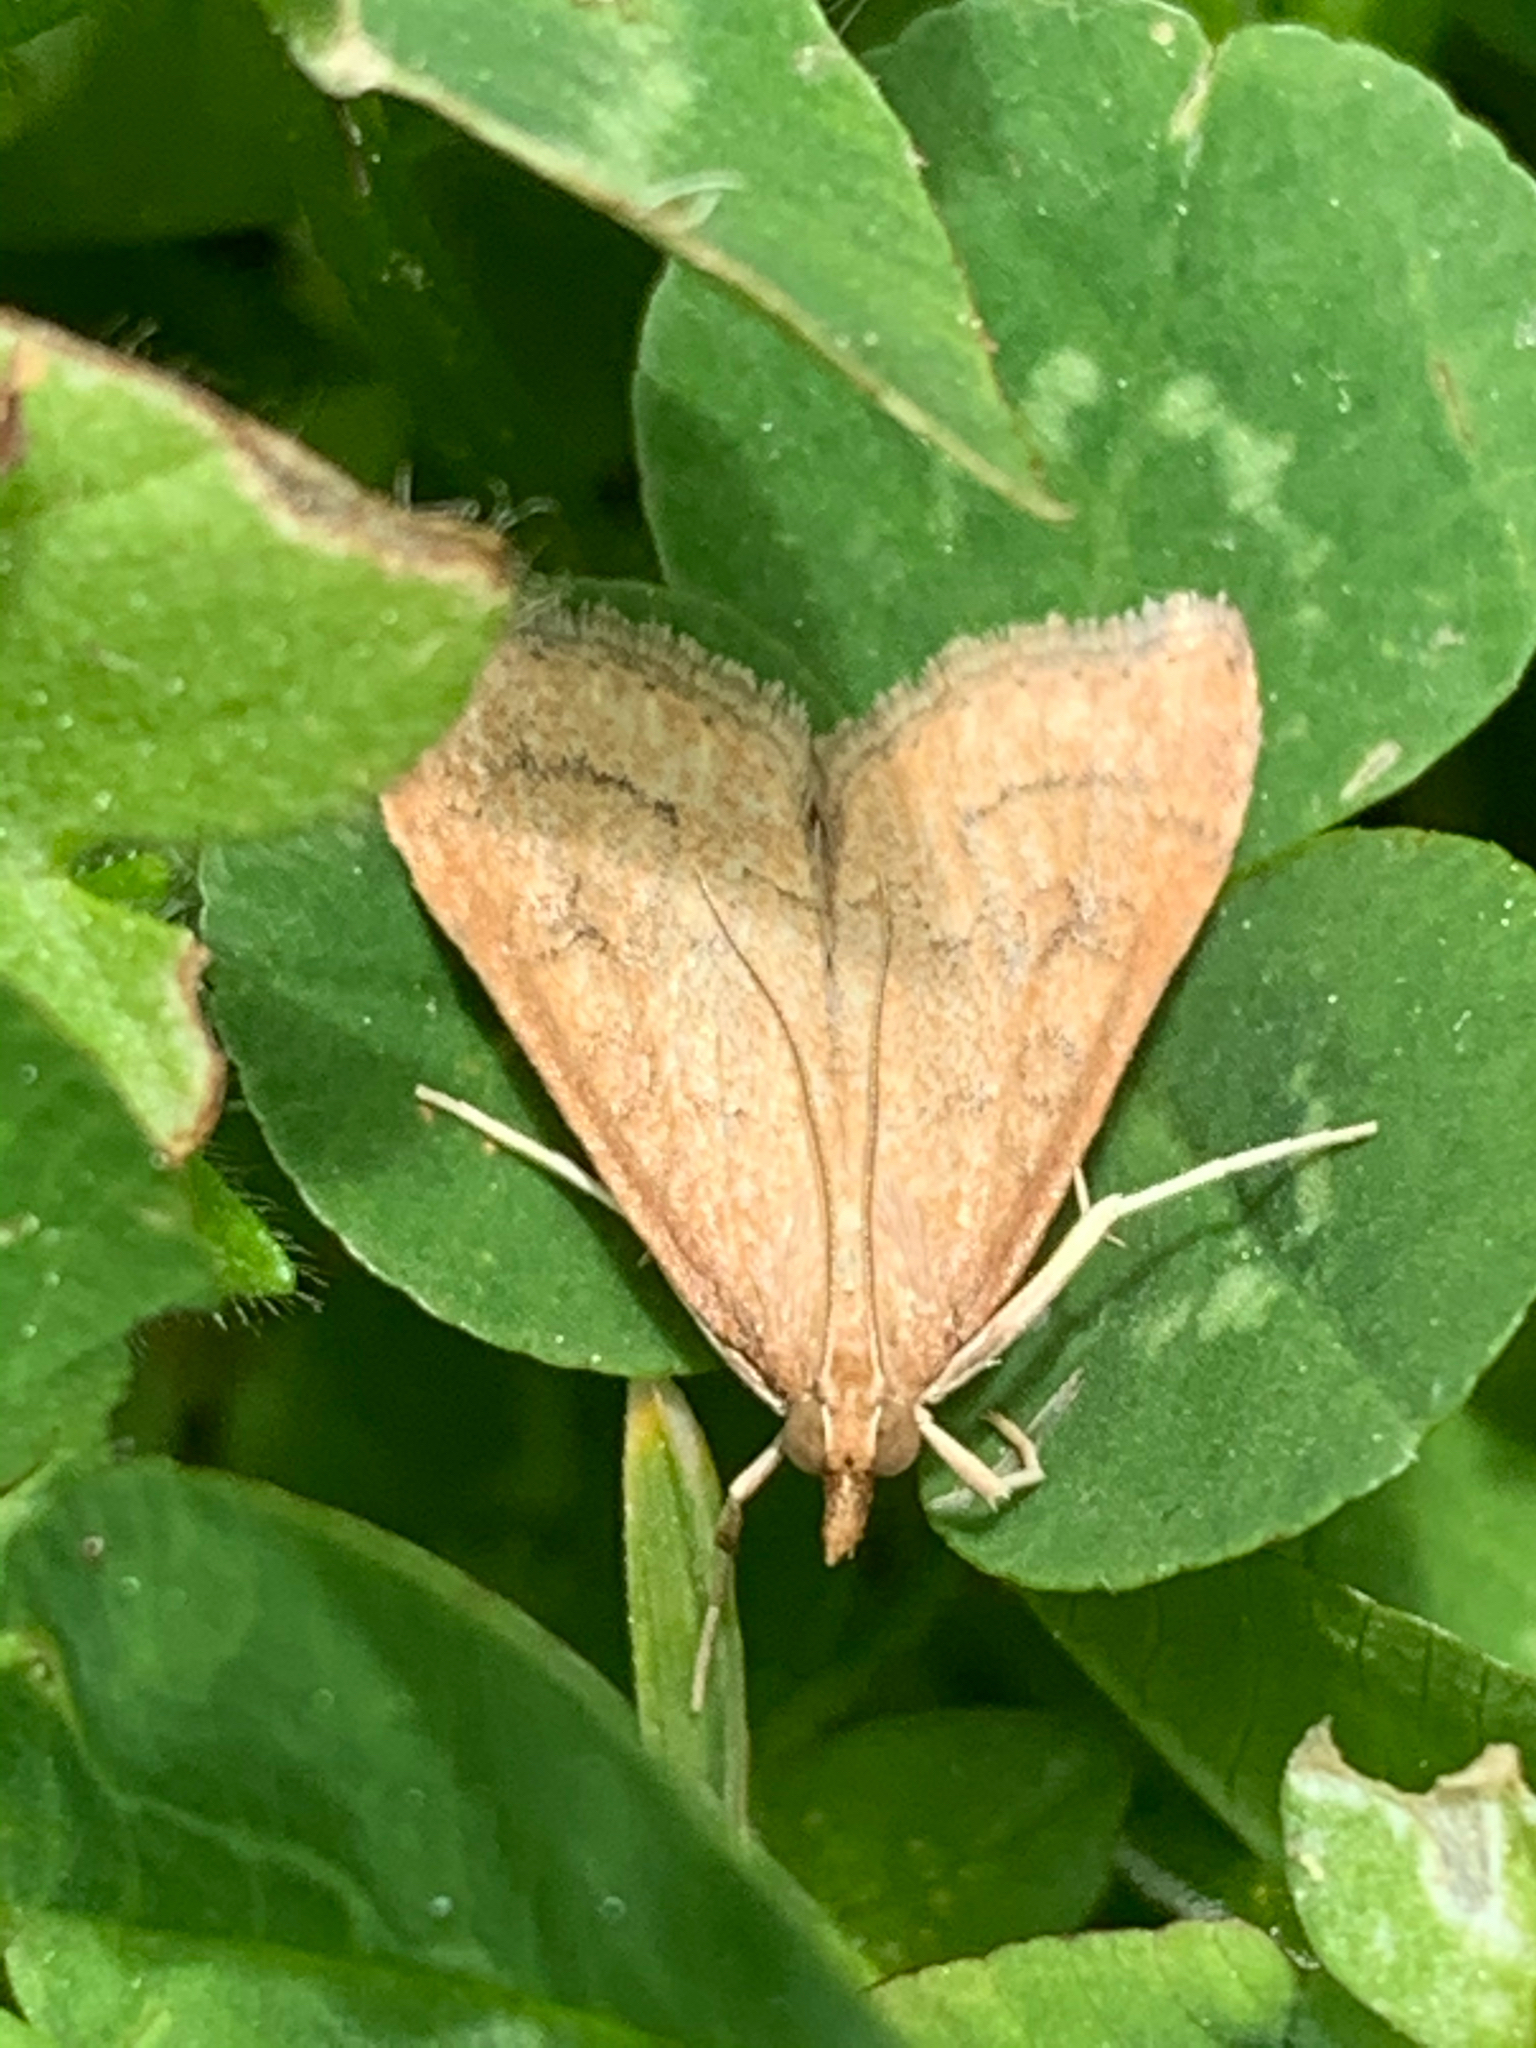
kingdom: Animalia
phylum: Arthropoda
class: Insecta
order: Lepidoptera
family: Crambidae
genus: Udea
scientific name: Udea rubigalis
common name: Celery leaftier moth
